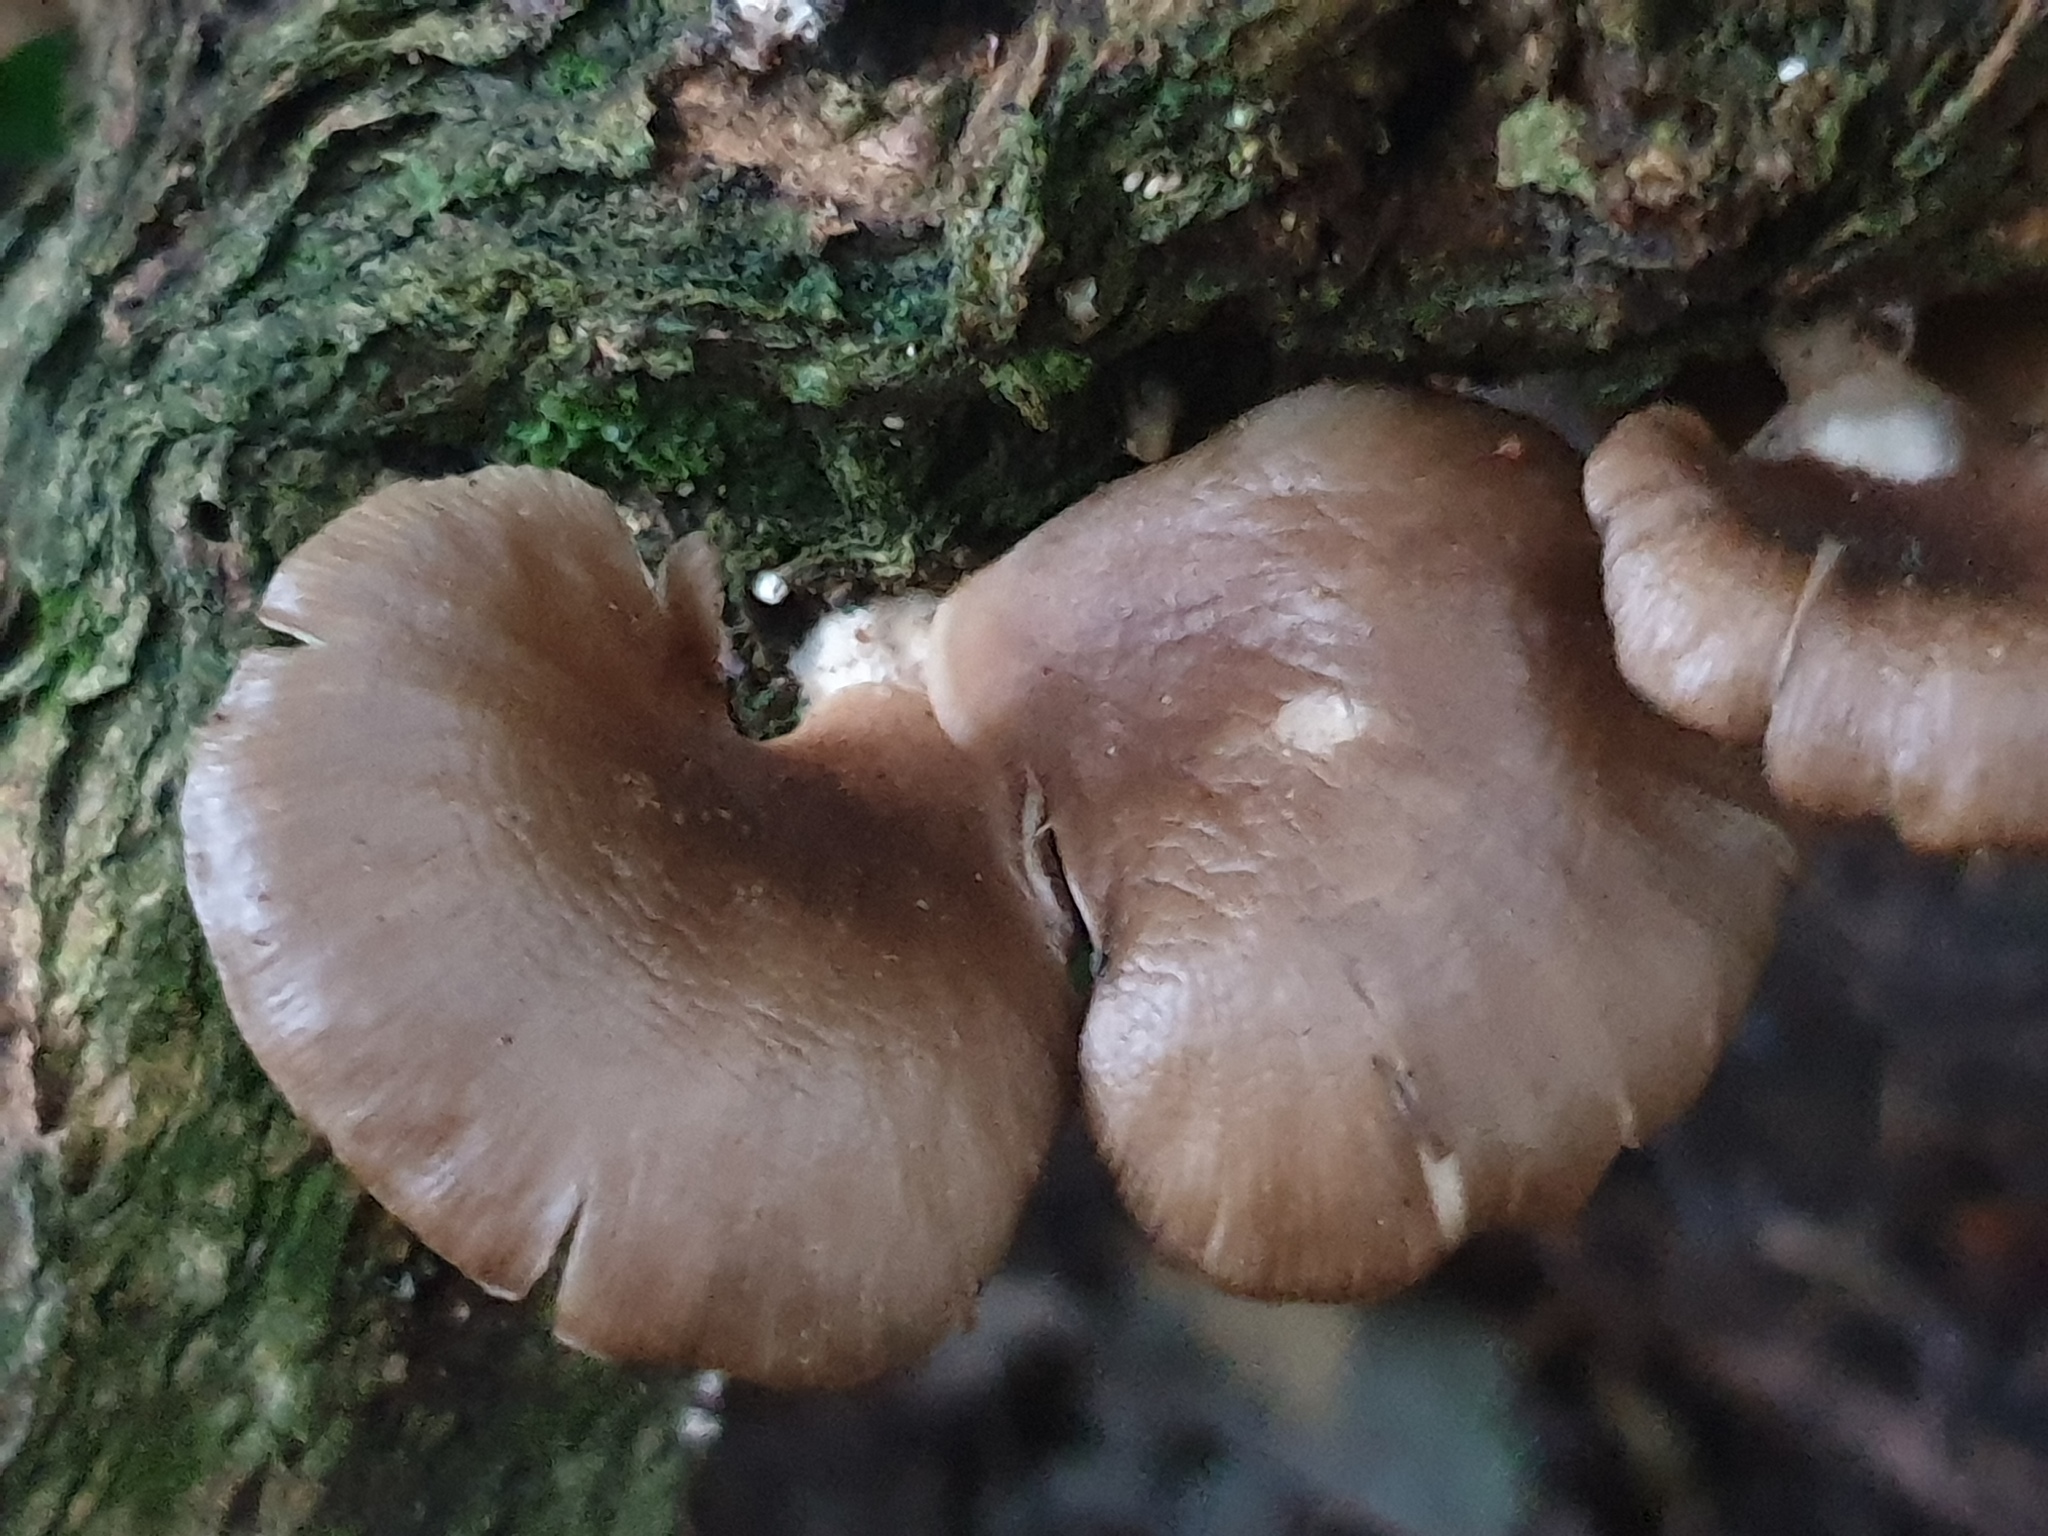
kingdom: Fungi
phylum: Basidiomycota
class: Agaricomycetes
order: Agaricales
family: Pleurotaceae
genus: Pleurotus
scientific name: Pleurotus purpureo-olivaceus
